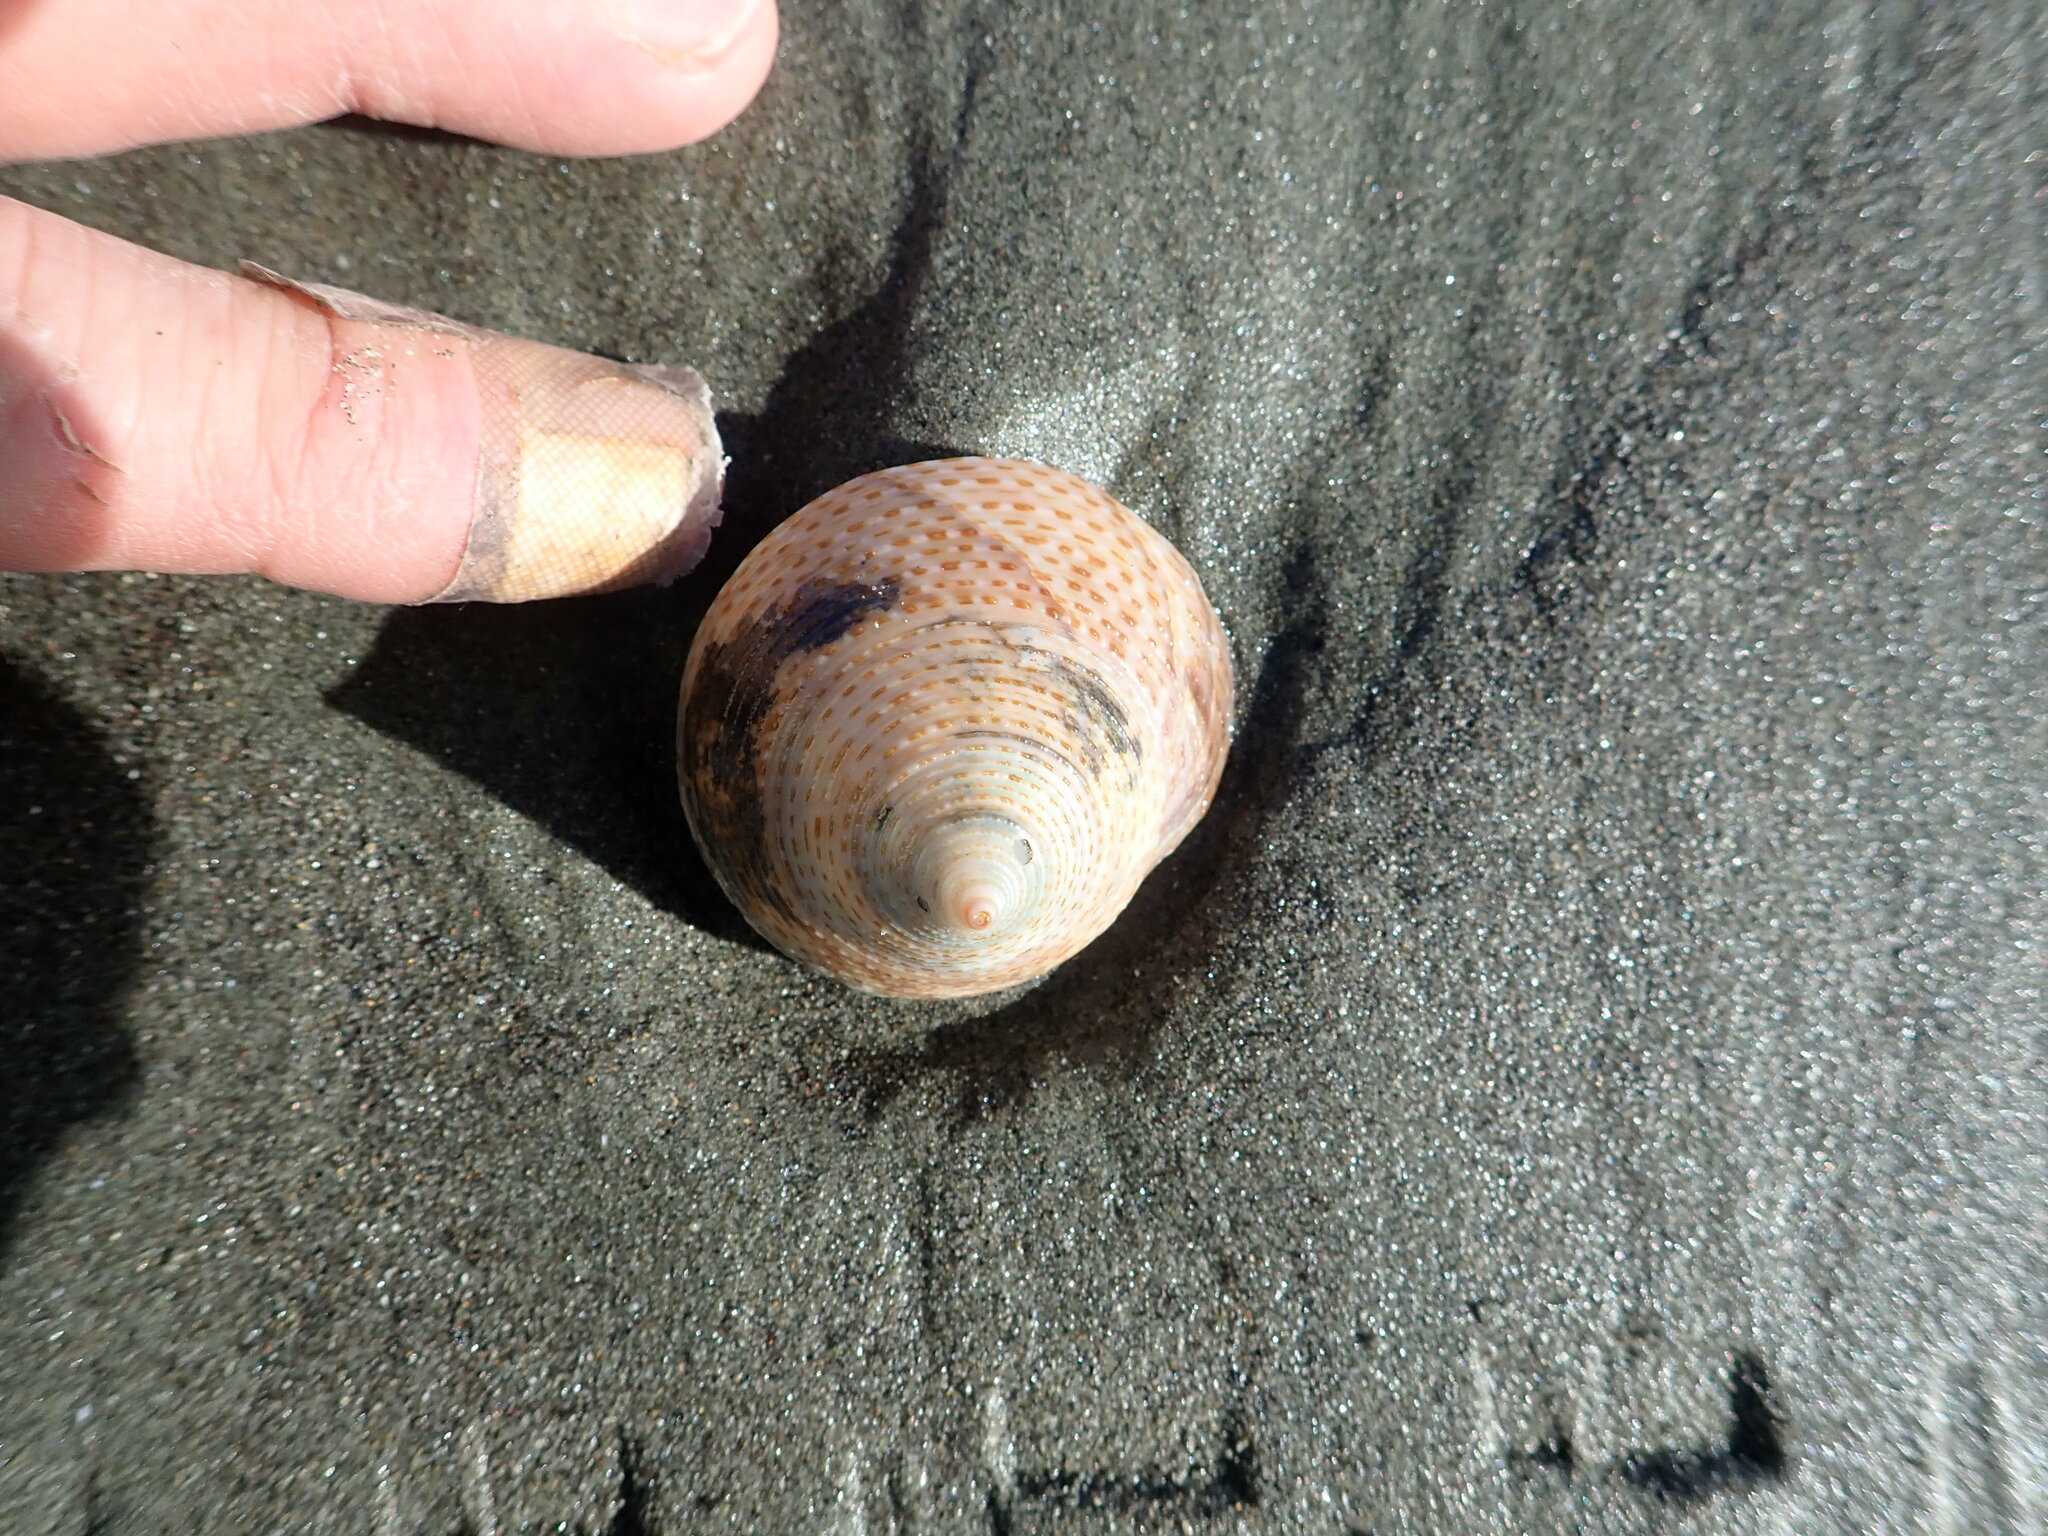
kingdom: Animalia
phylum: Mollusca
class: Gastropoda
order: Trochida
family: Calliostomatidae
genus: Maurea
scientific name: Maurea selecta
